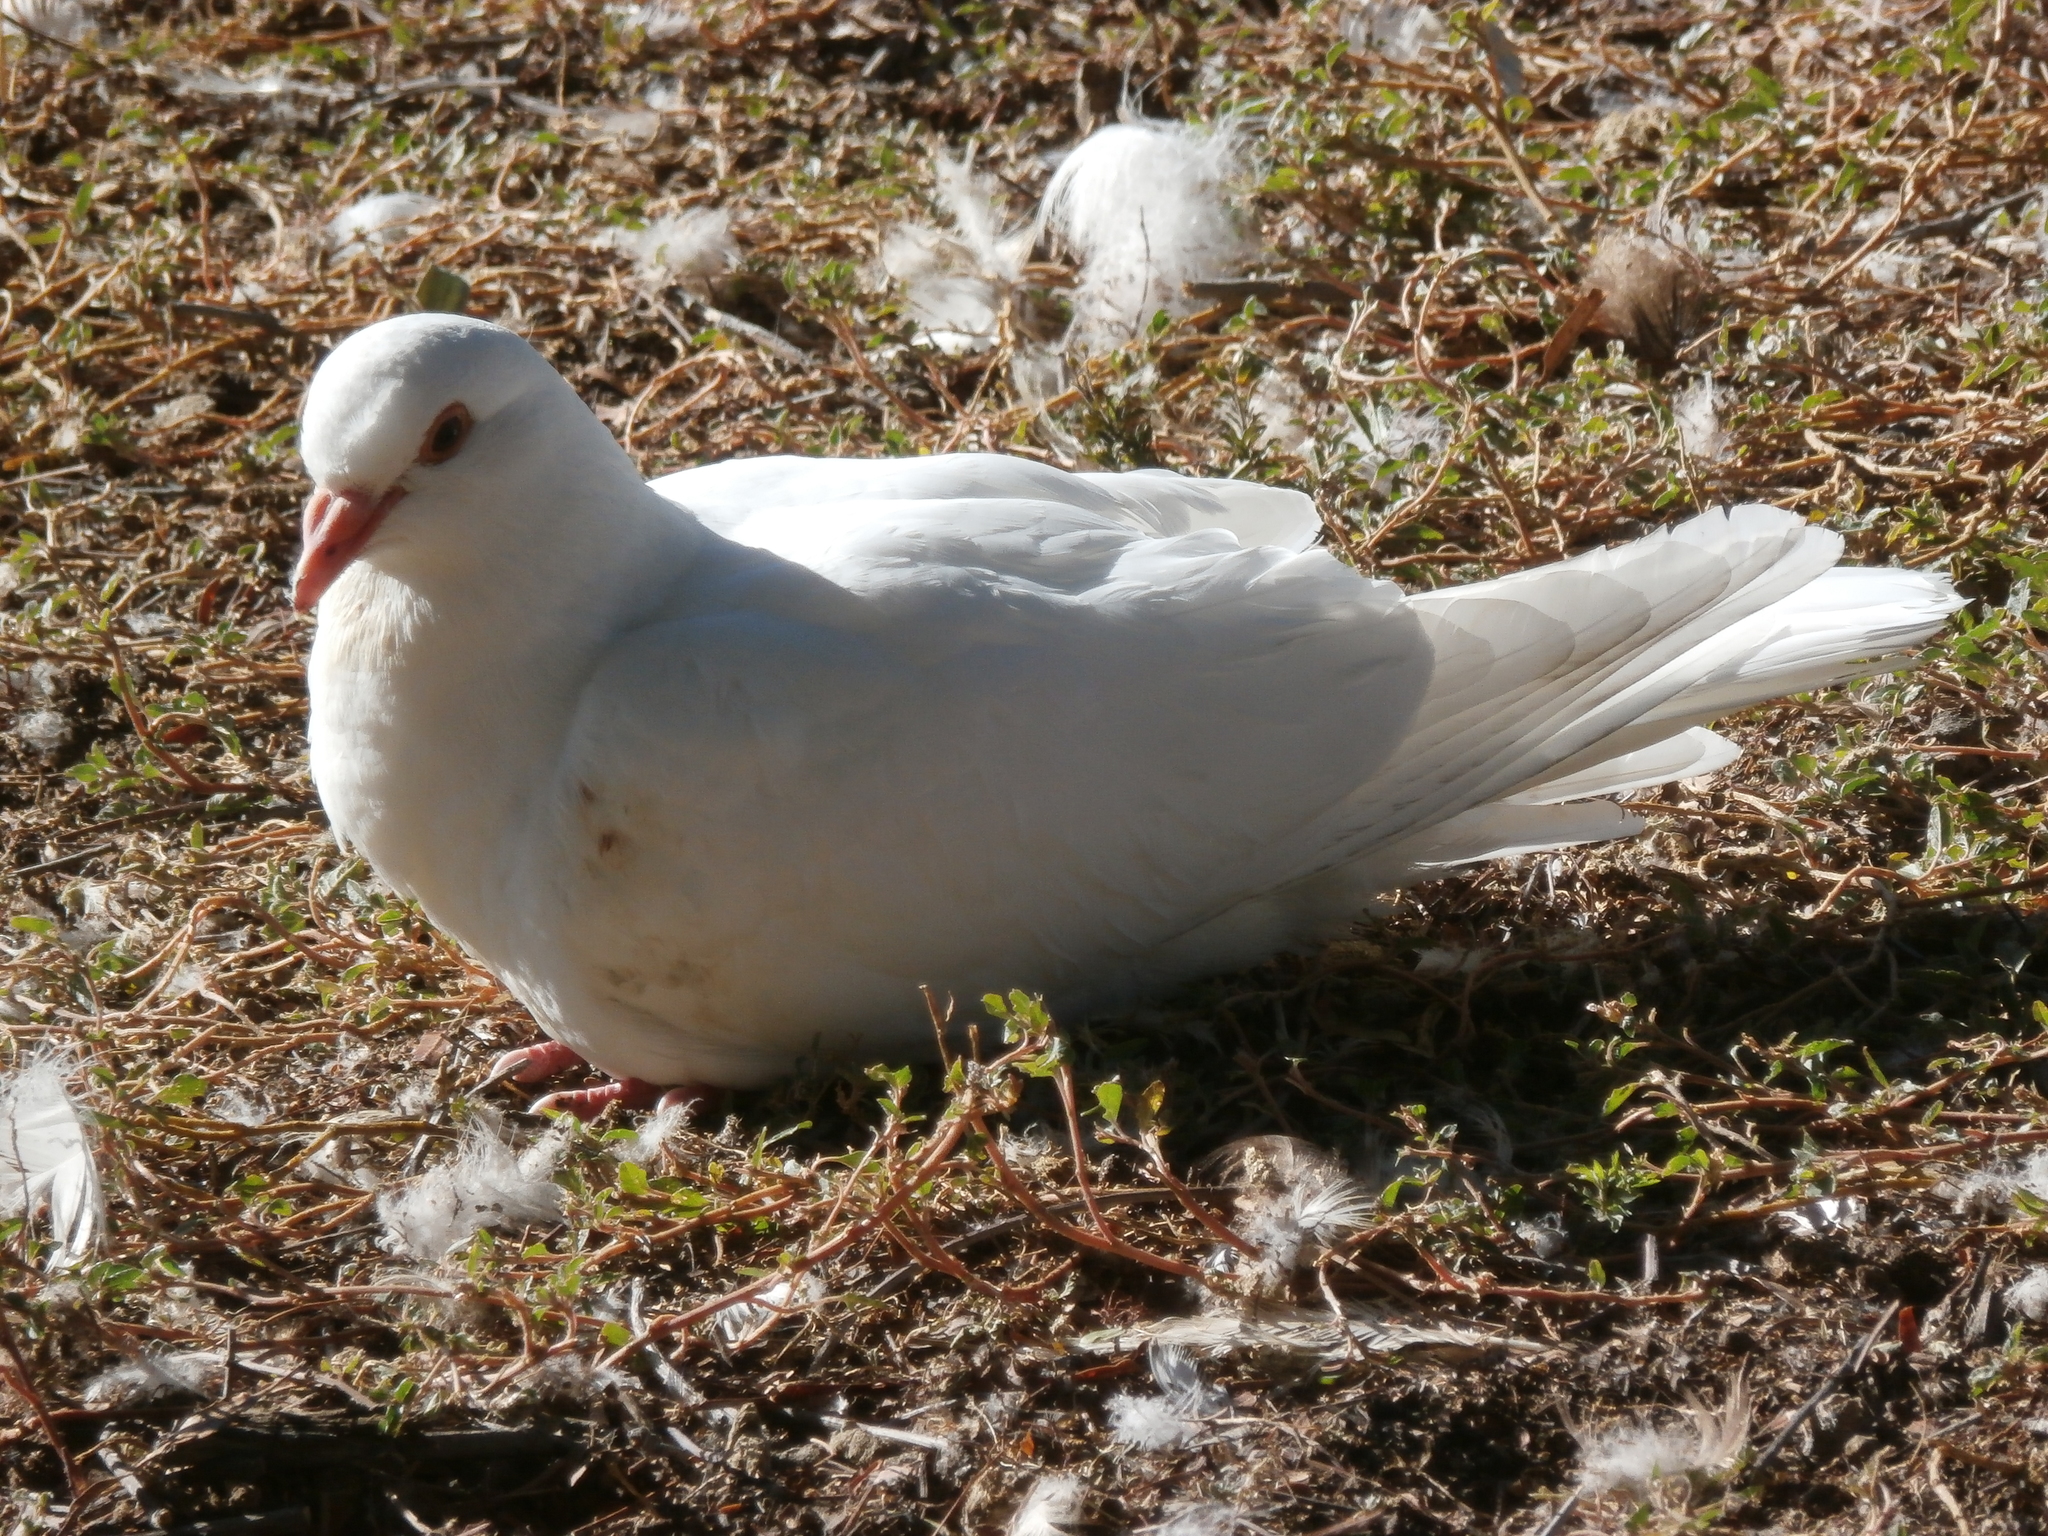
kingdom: Animalia
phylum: Chordata
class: Aves
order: Columbiformes
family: Columbidae
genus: Columba
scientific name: Columba livia
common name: Rock pigeon
